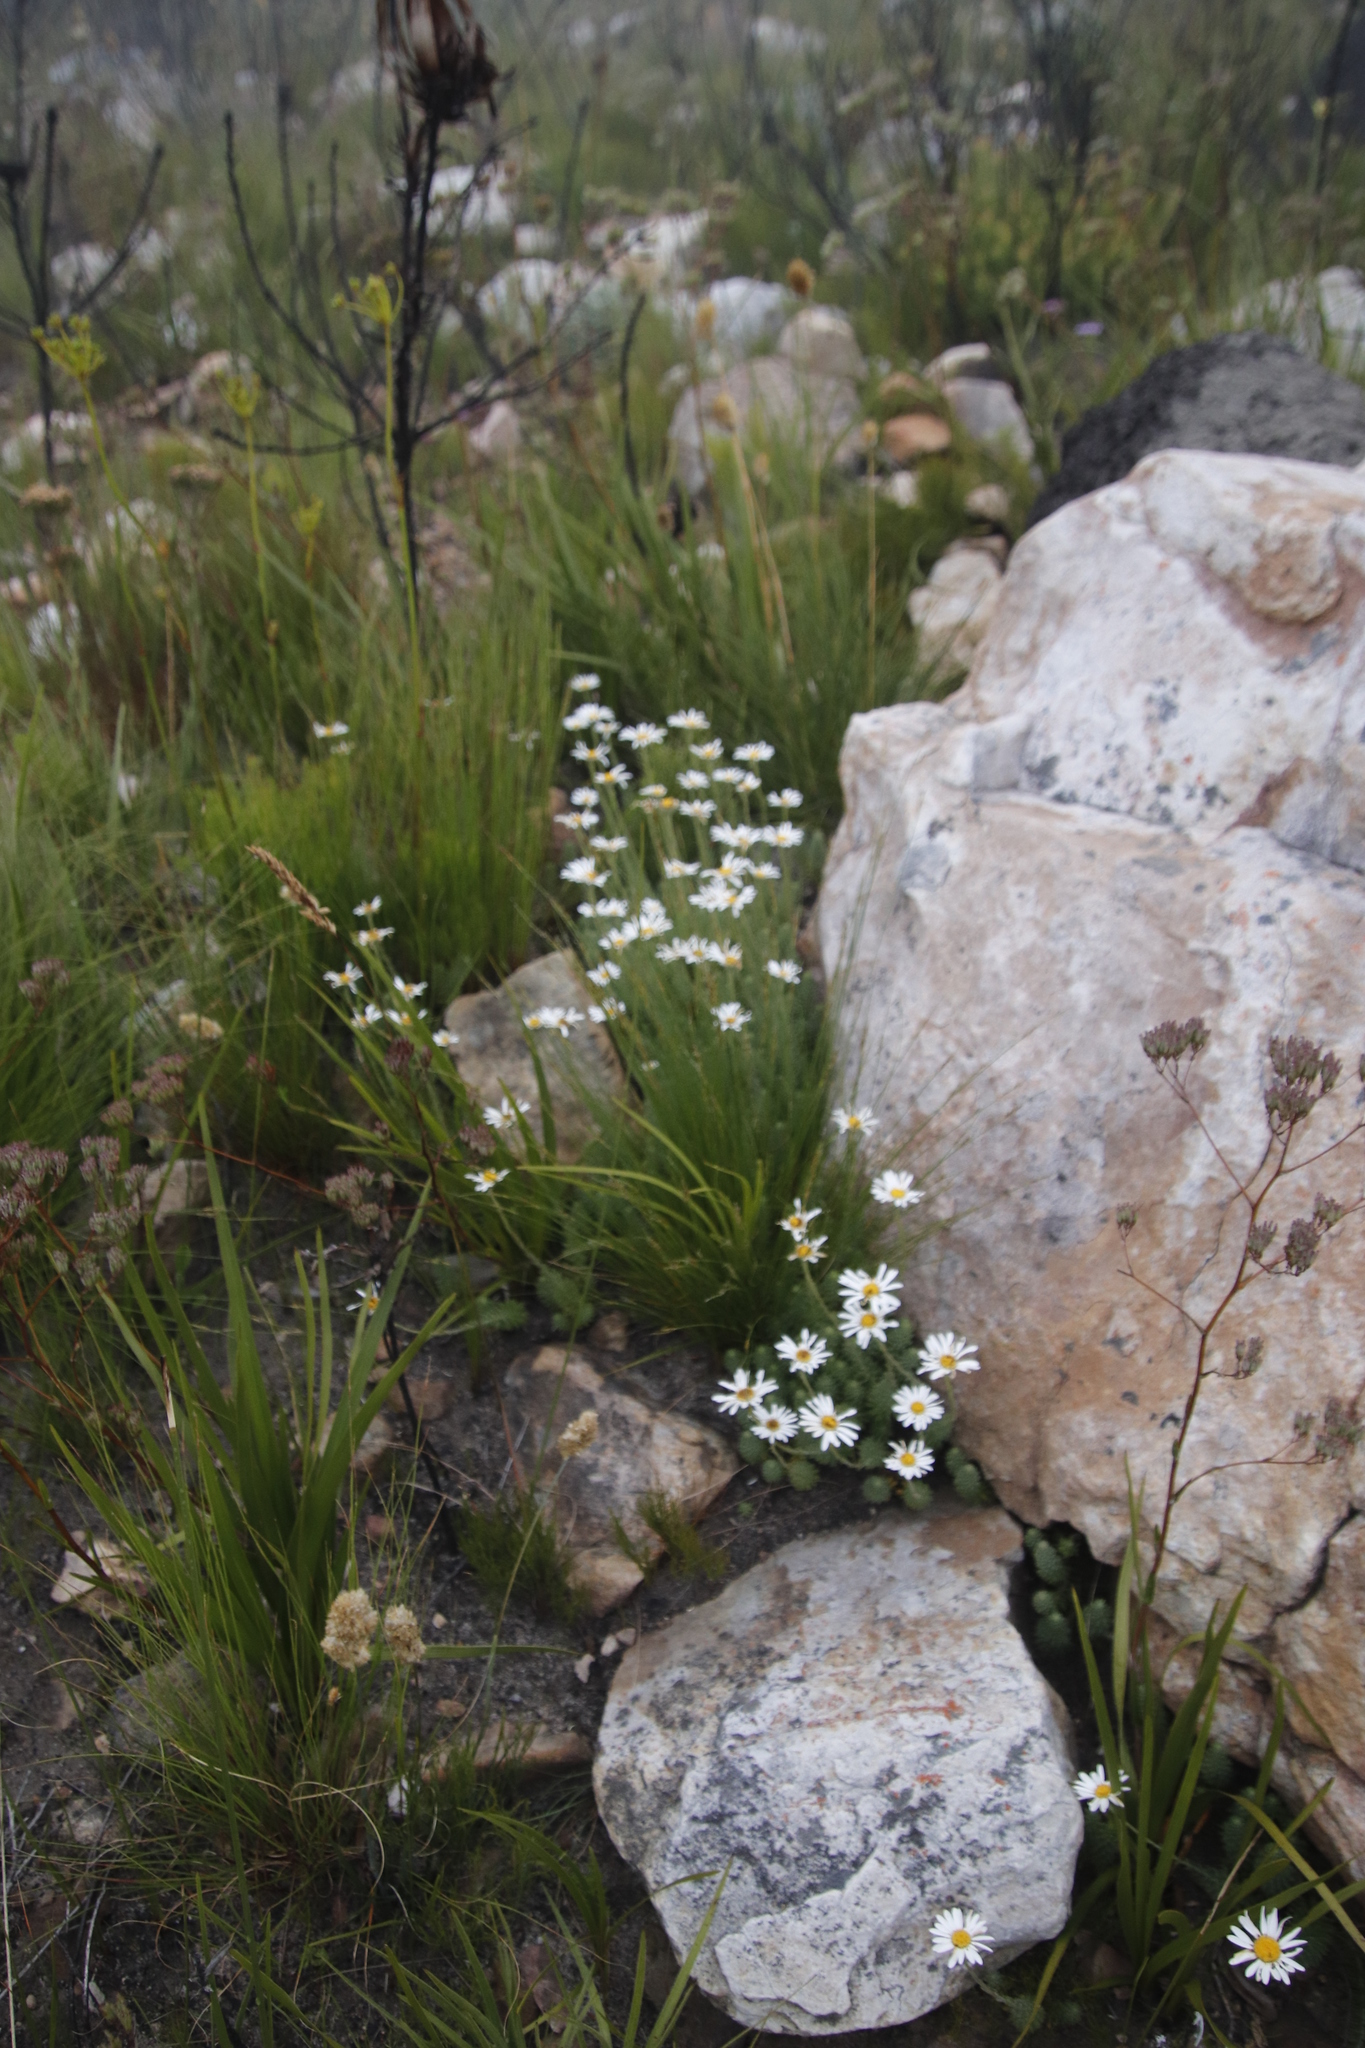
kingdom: Plantae
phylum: Tracheophyta
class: Magnoliopsida
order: Asterales
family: Asteraceae
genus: Osmitopsis
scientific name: Osmitopsis afra
